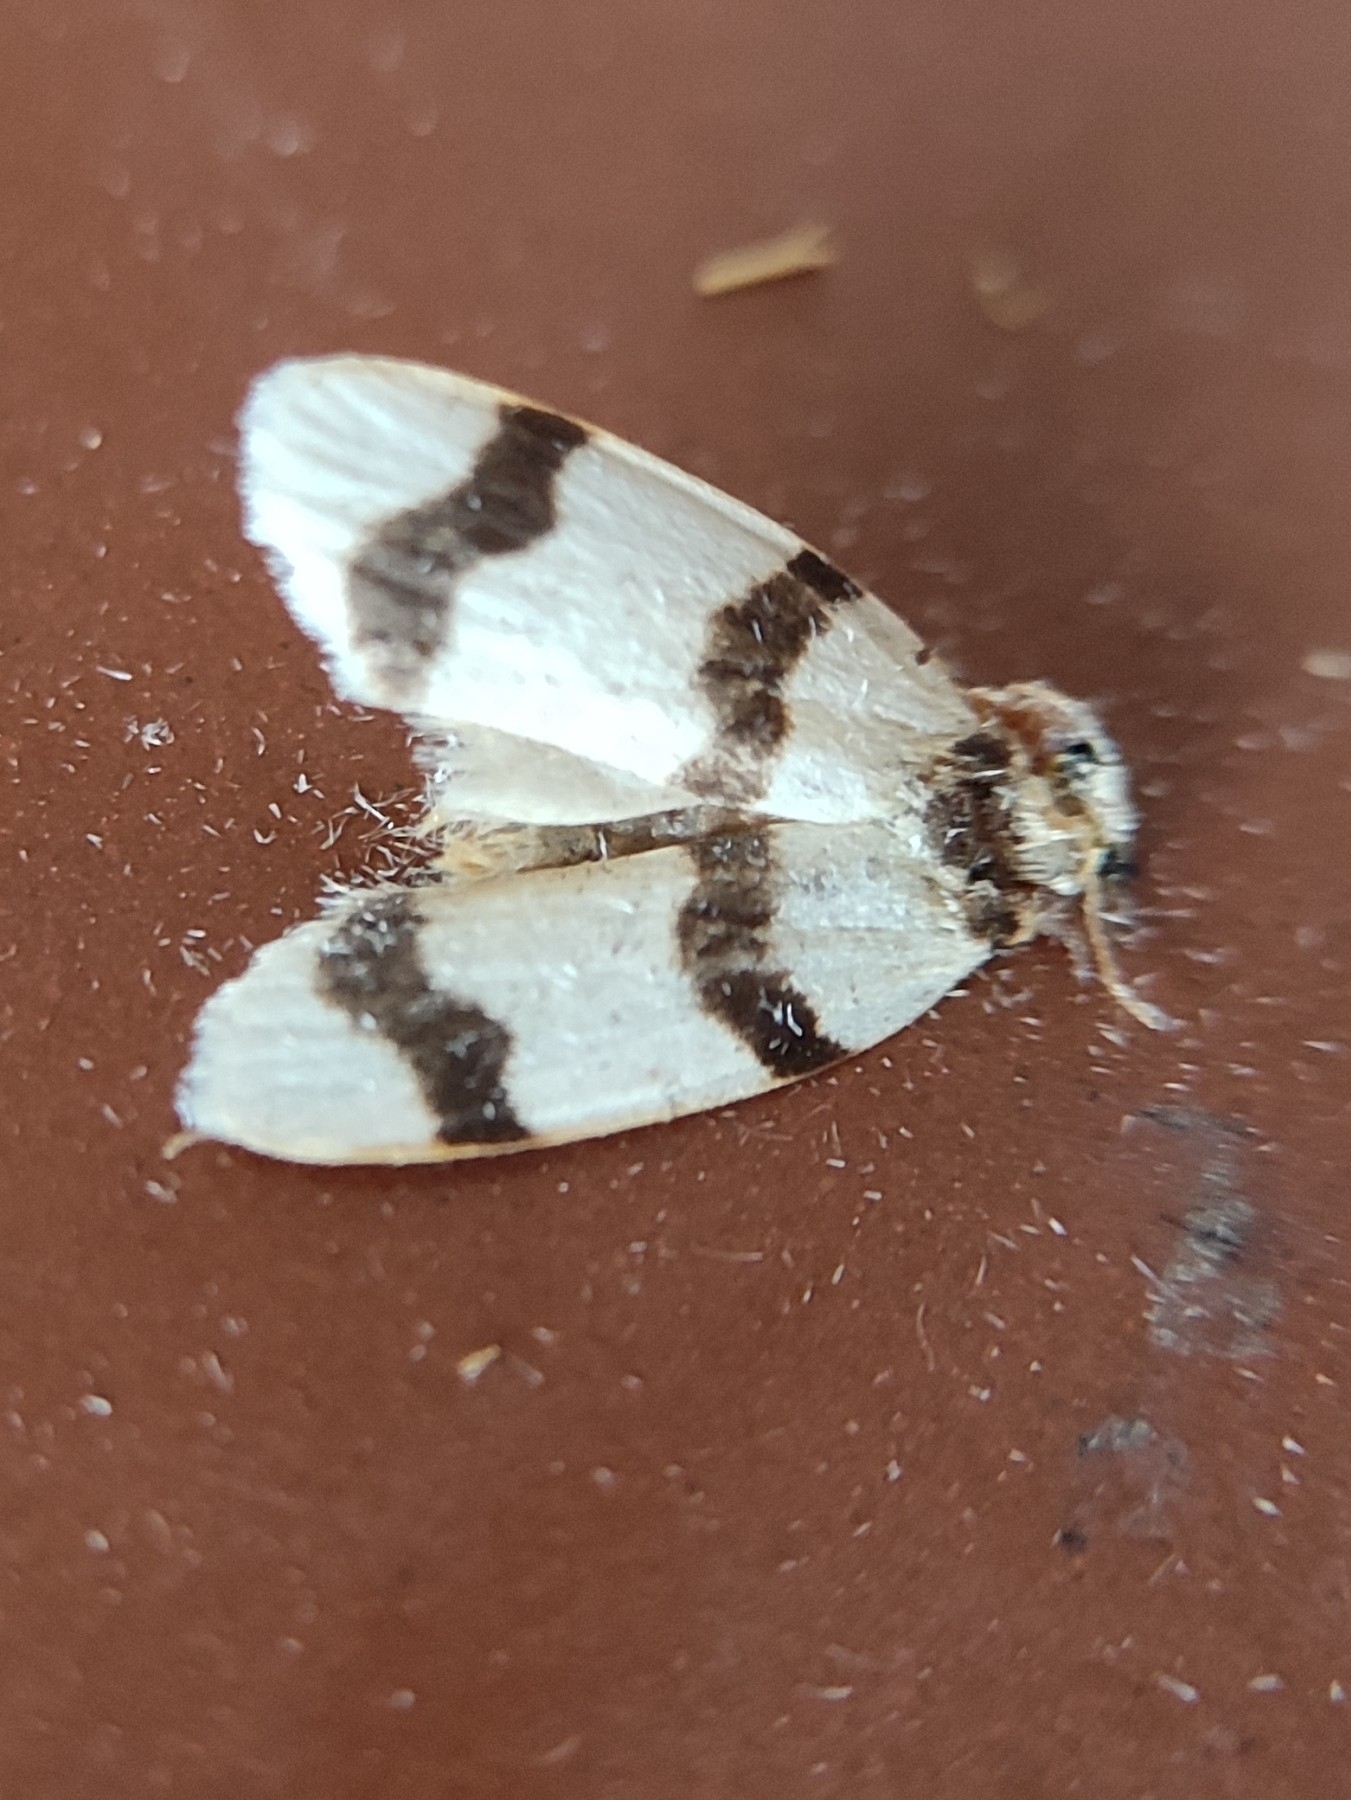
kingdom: Animalia
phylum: Arthropoda
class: Insecta
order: Lepidoptera
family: Erebidae
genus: Padenia
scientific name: Padenia transversa
